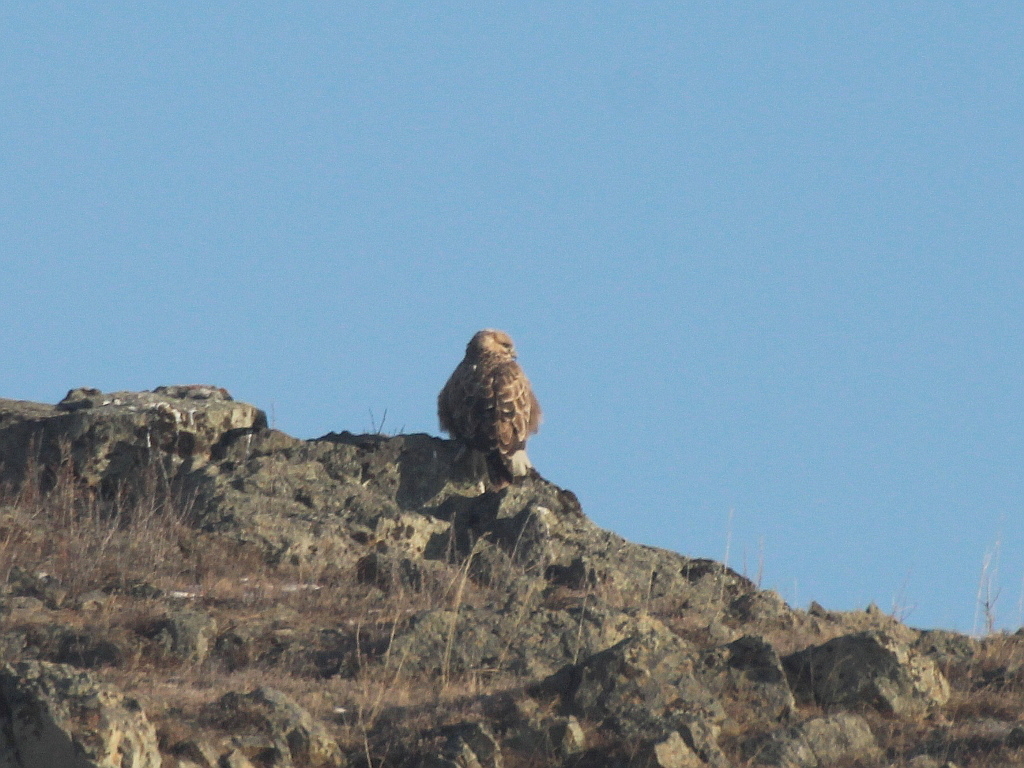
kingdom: Animalia
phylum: Chordata
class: Aves
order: Accipitriformes
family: Accipitridae
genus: Buteo
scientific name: Buteo hemilasius
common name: Upland buzzard
